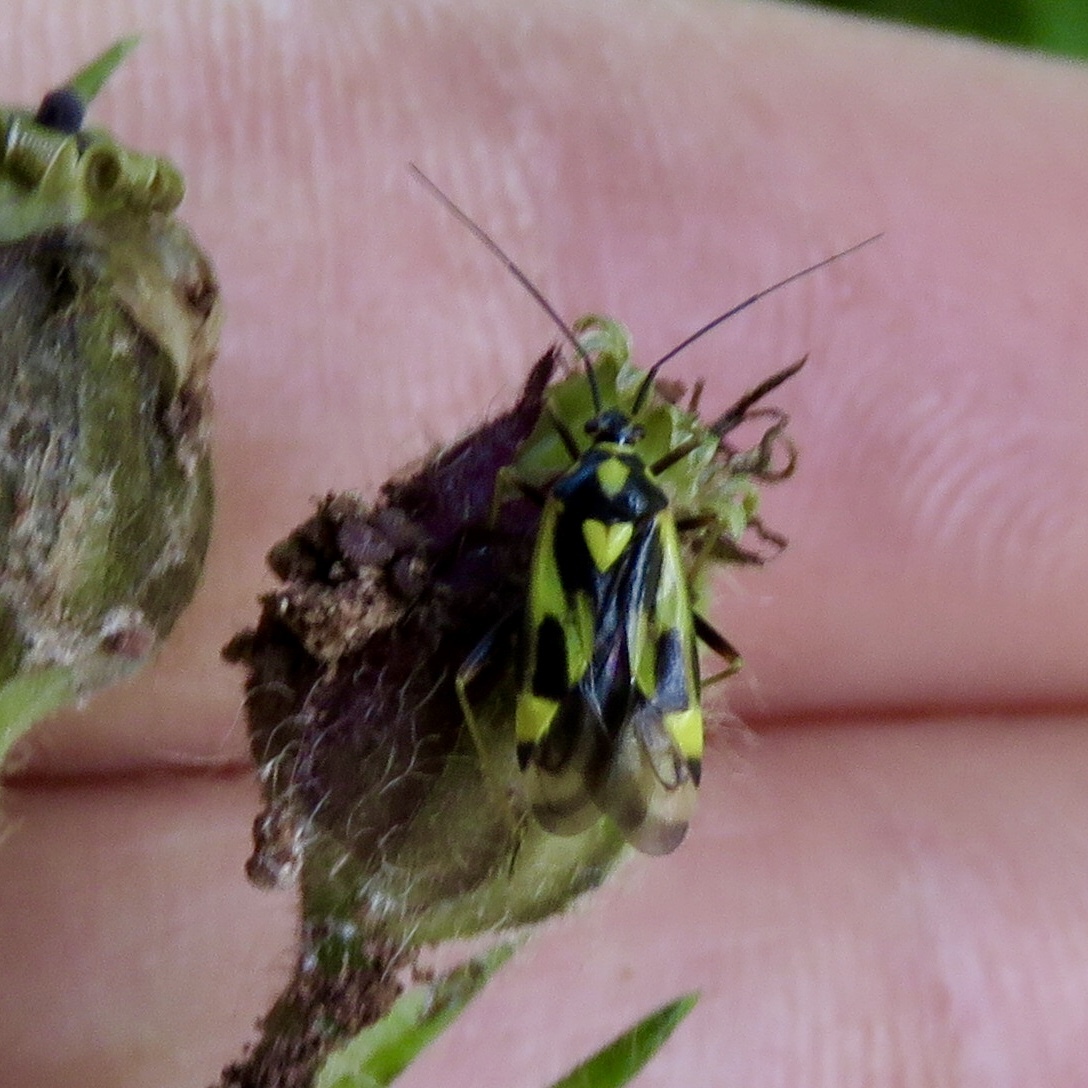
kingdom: Animalia
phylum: Arthropoda
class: Insecta
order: Hemiptera
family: Miridae
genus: Grypocoris
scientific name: Grypocoris sexguttatus
